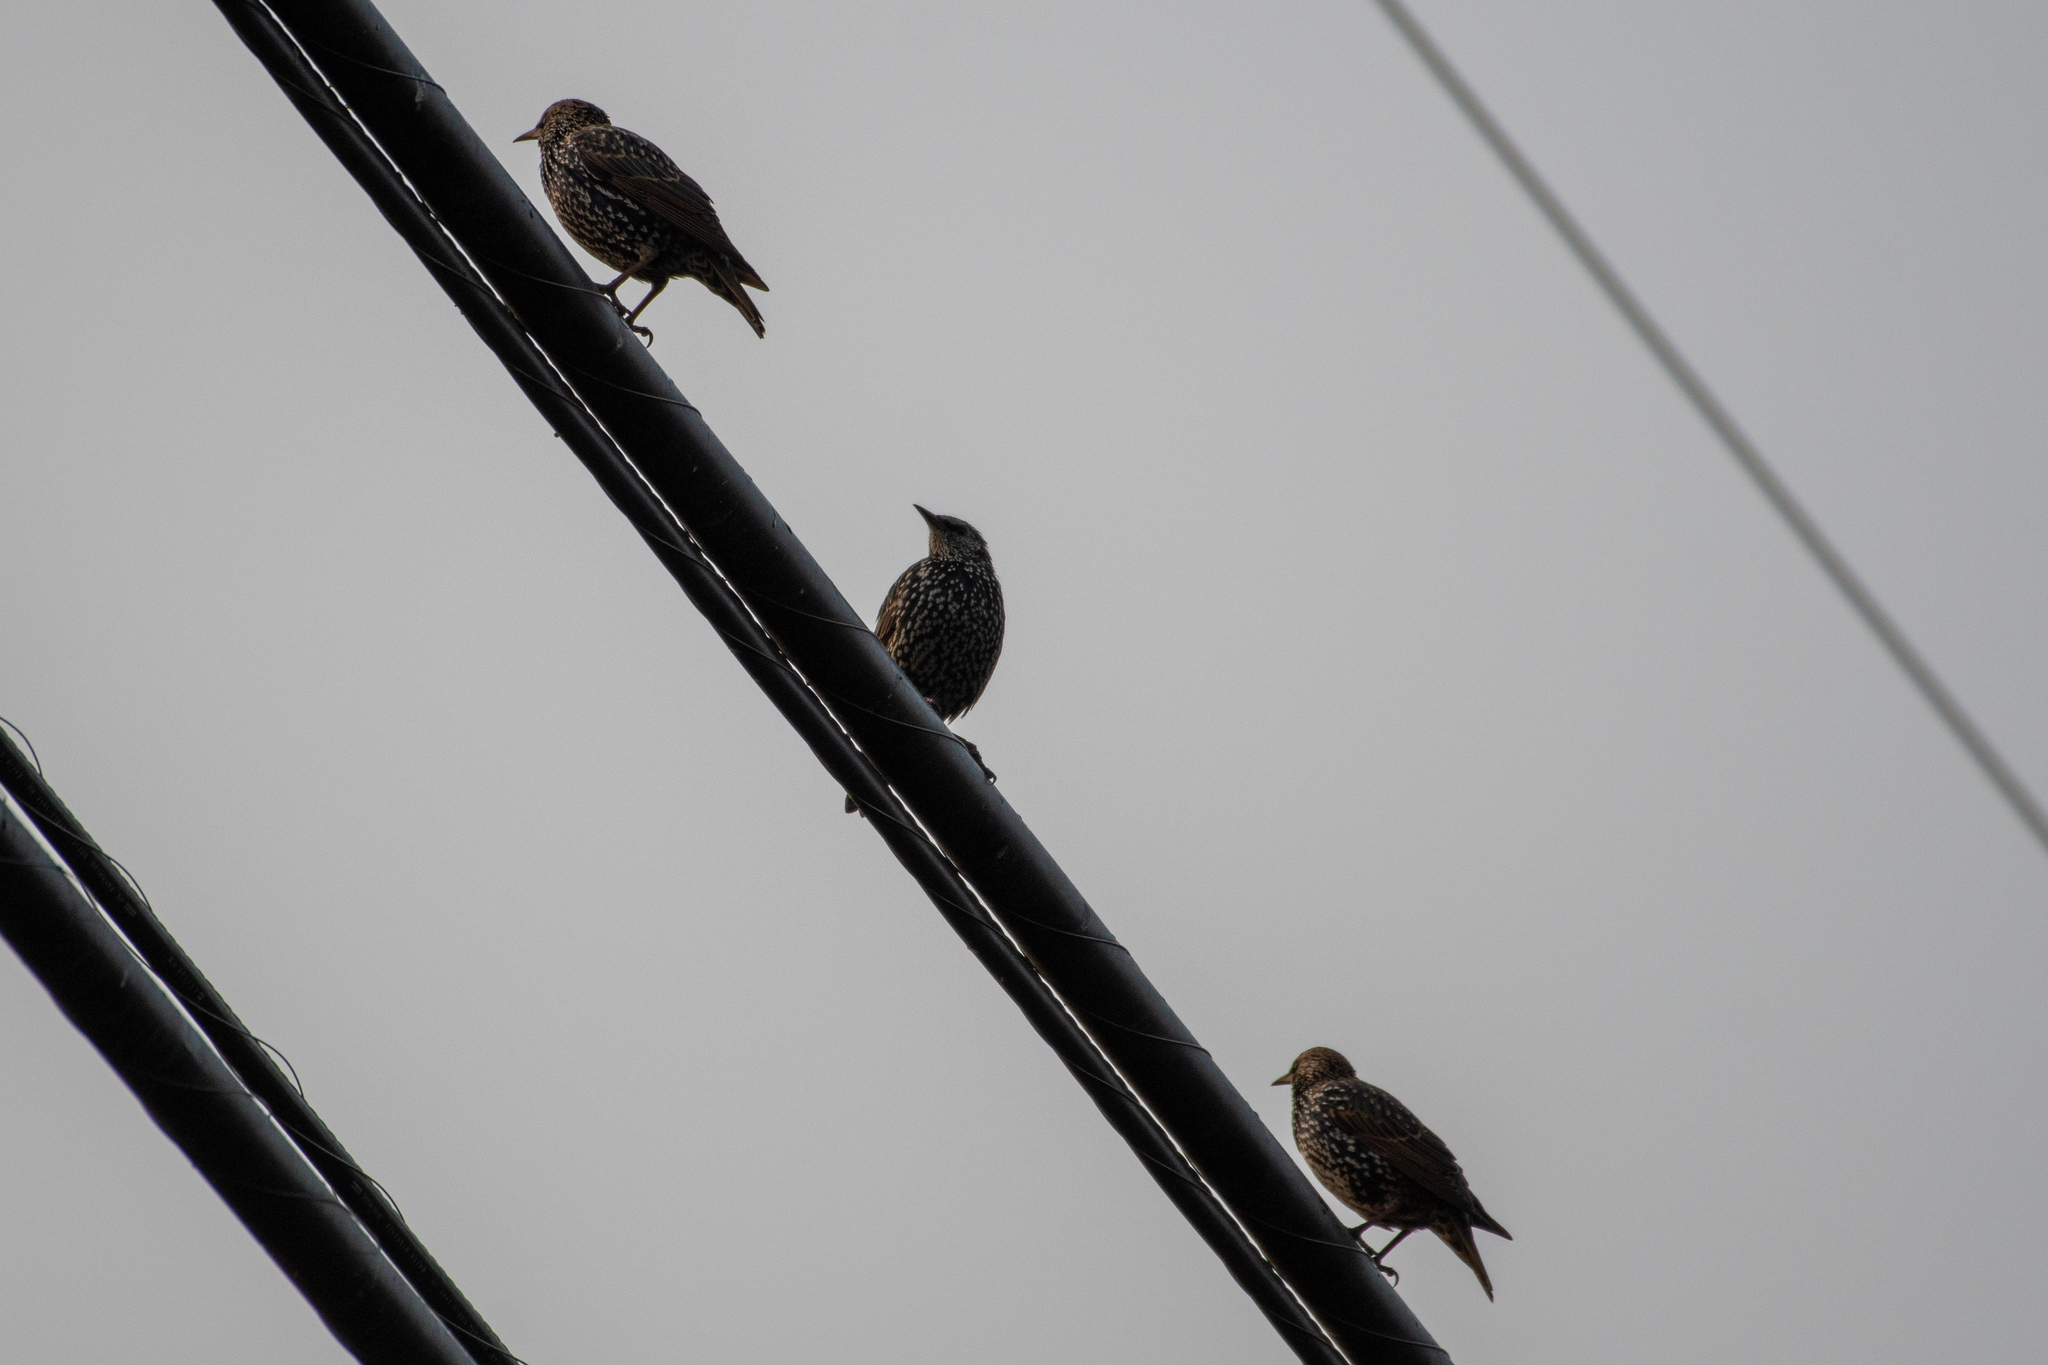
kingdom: Animalia
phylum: Chordata
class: Aves
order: Passeriformes
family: Sturnidae
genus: Sturnus
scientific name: Sturnus vulgaris
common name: Common starling
